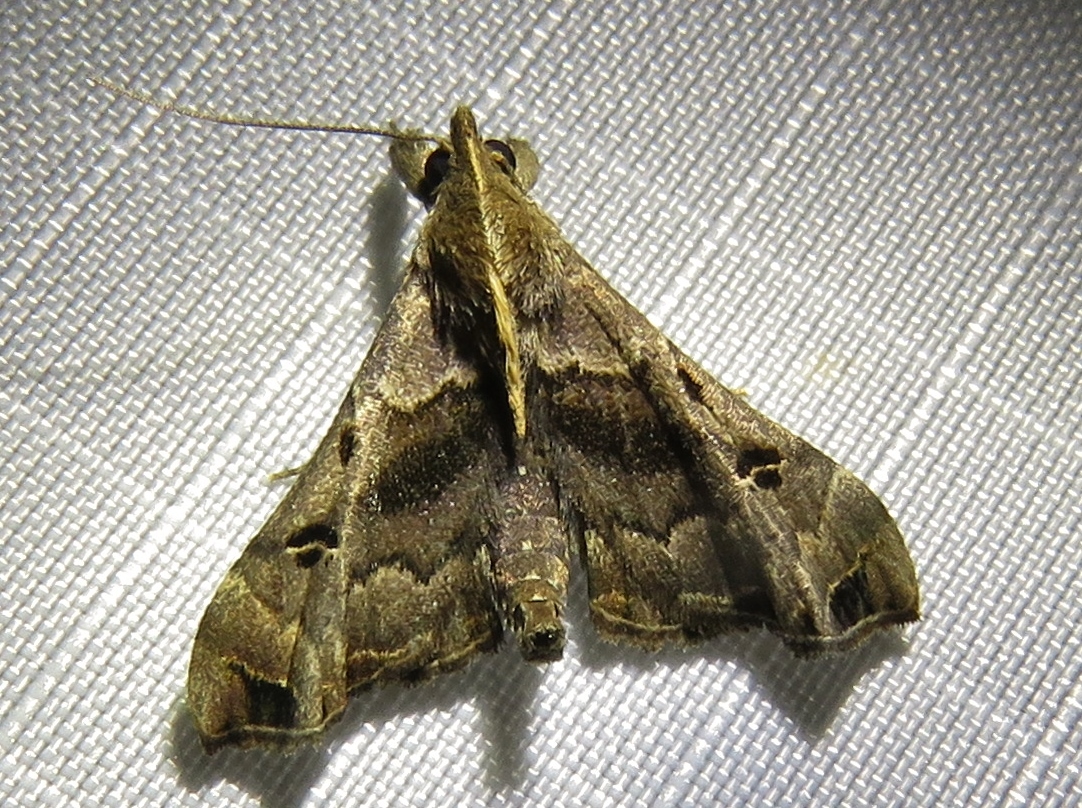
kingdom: Animalia
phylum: Arthropoda
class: Insecta
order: Lepidoptera
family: Erebidae
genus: Palthis
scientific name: Palthis asopialis
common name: Faint-spotted palthis moth
